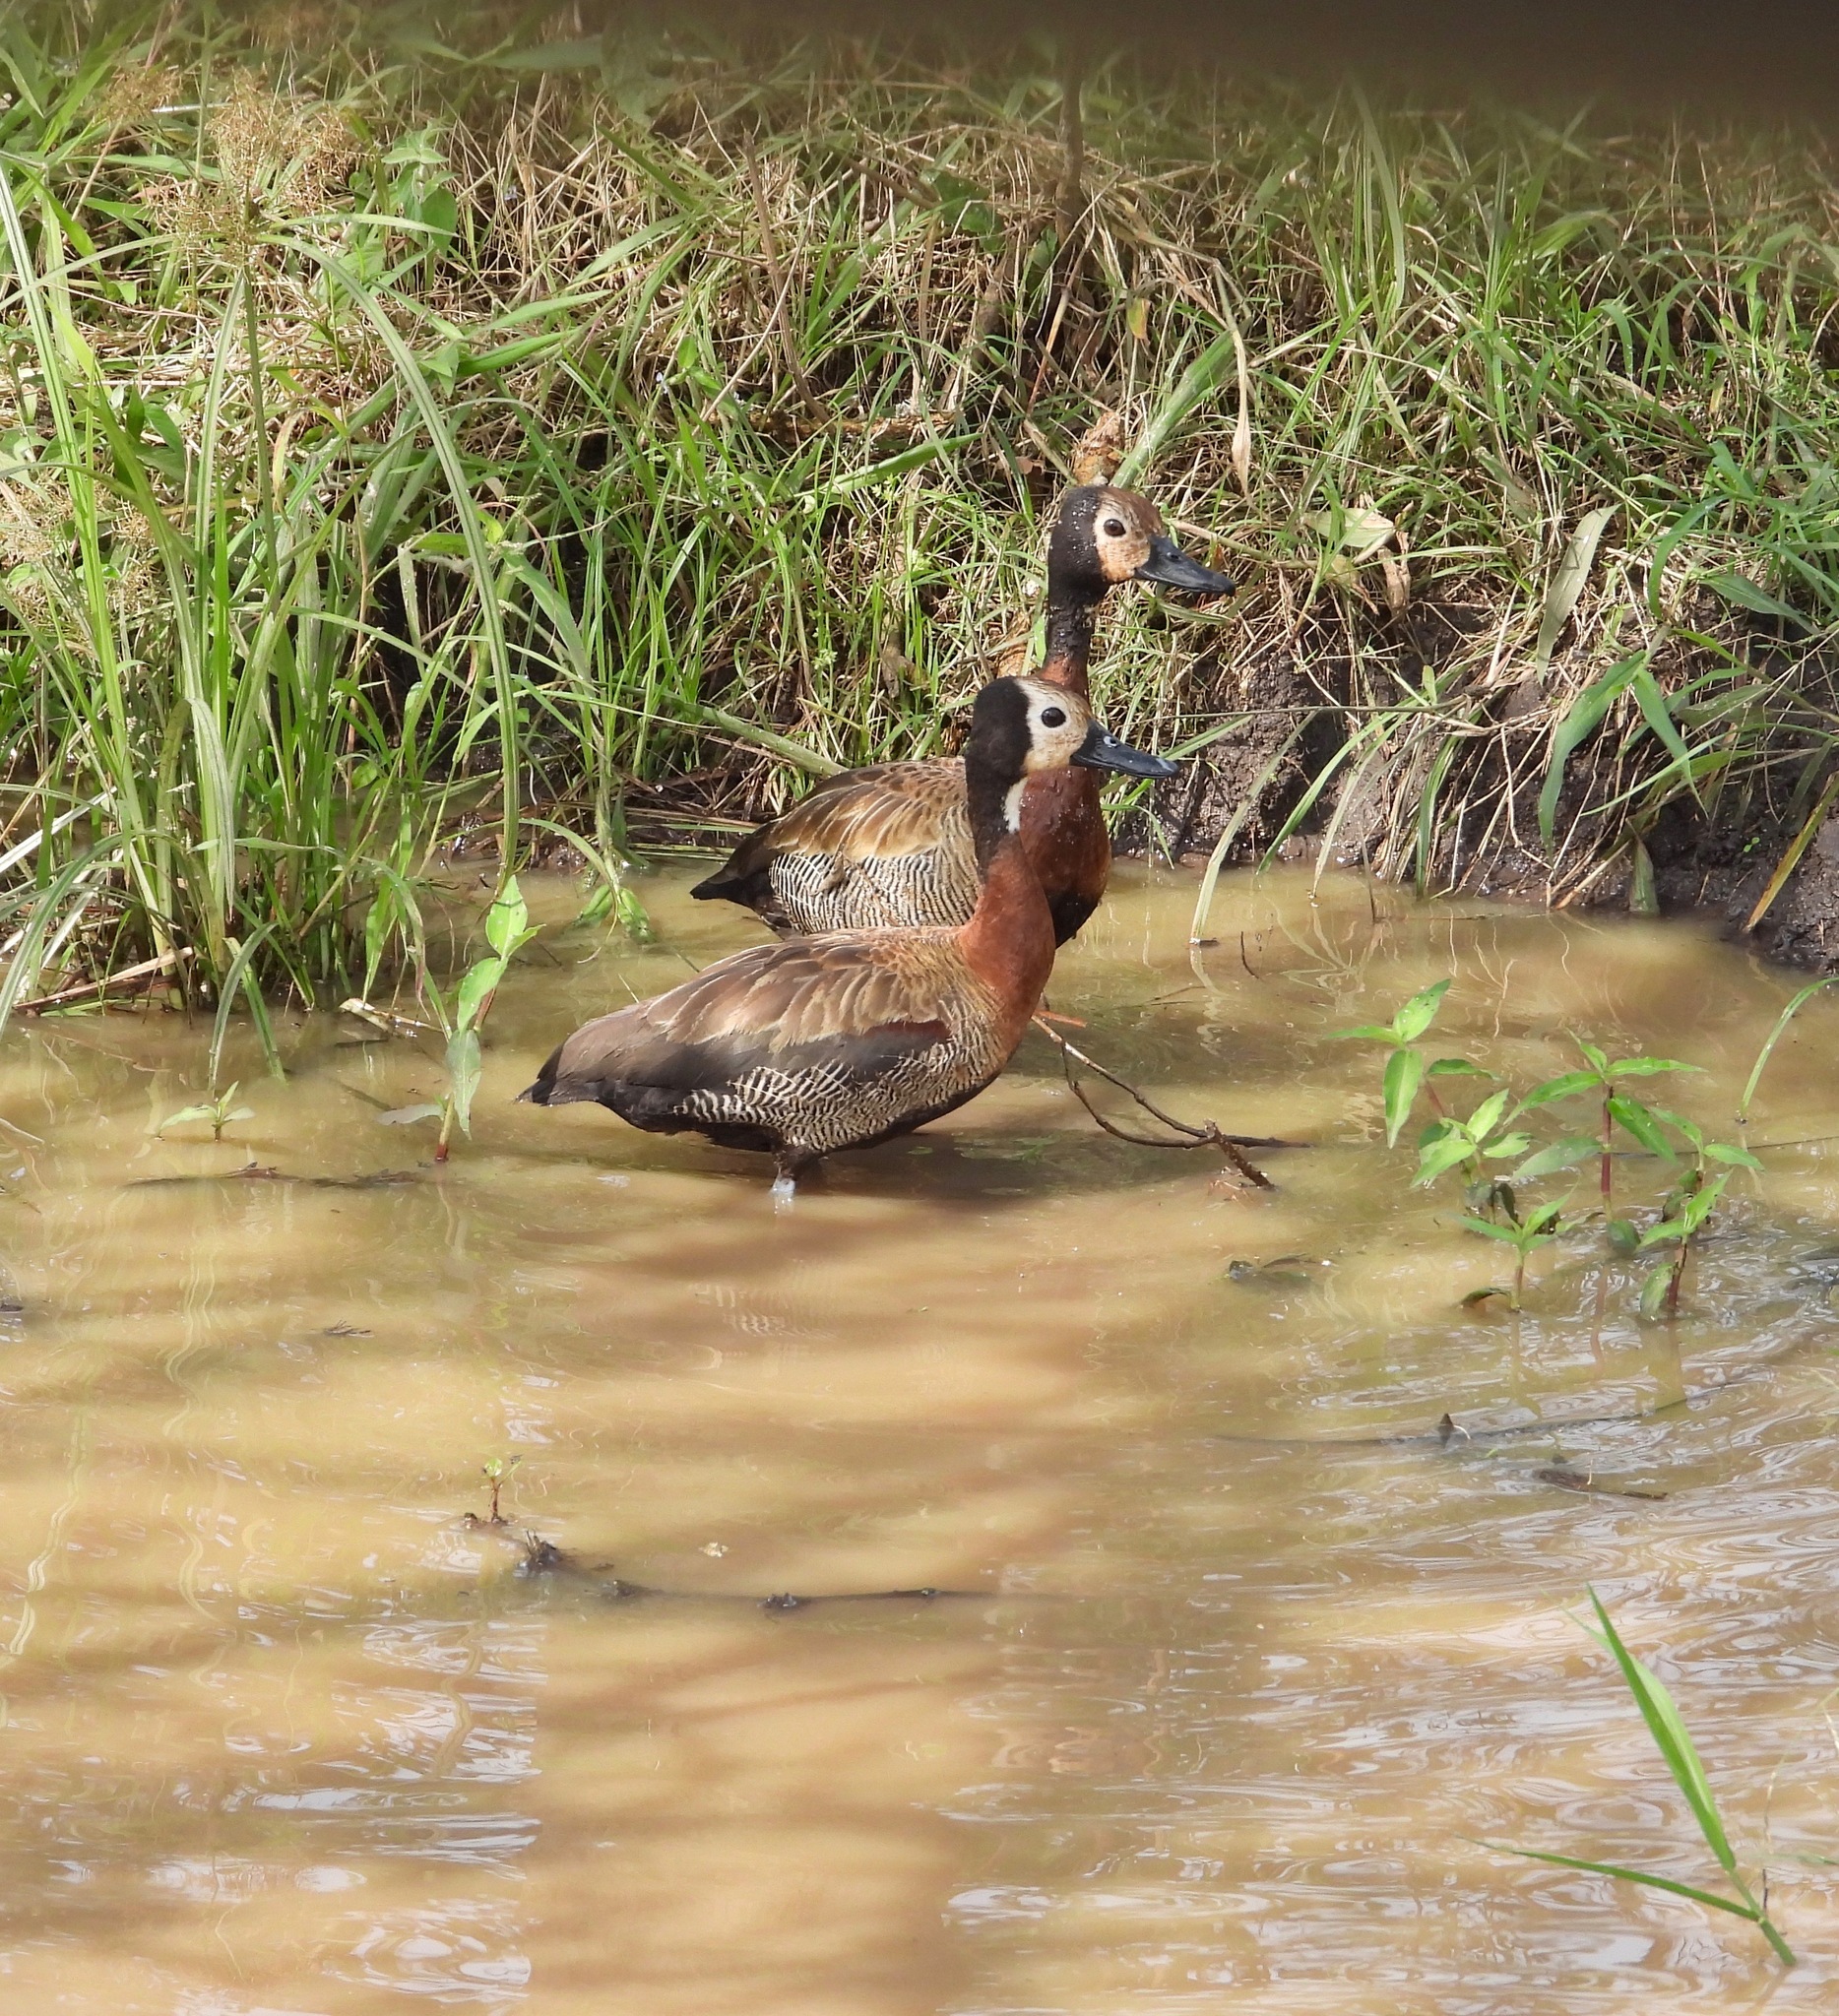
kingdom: Animalia
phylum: Chordata
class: Aves
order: Anseriformes
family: Anatidae
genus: Dendrocygna
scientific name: Dendrocygna viduata
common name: White-faced whistling duck
